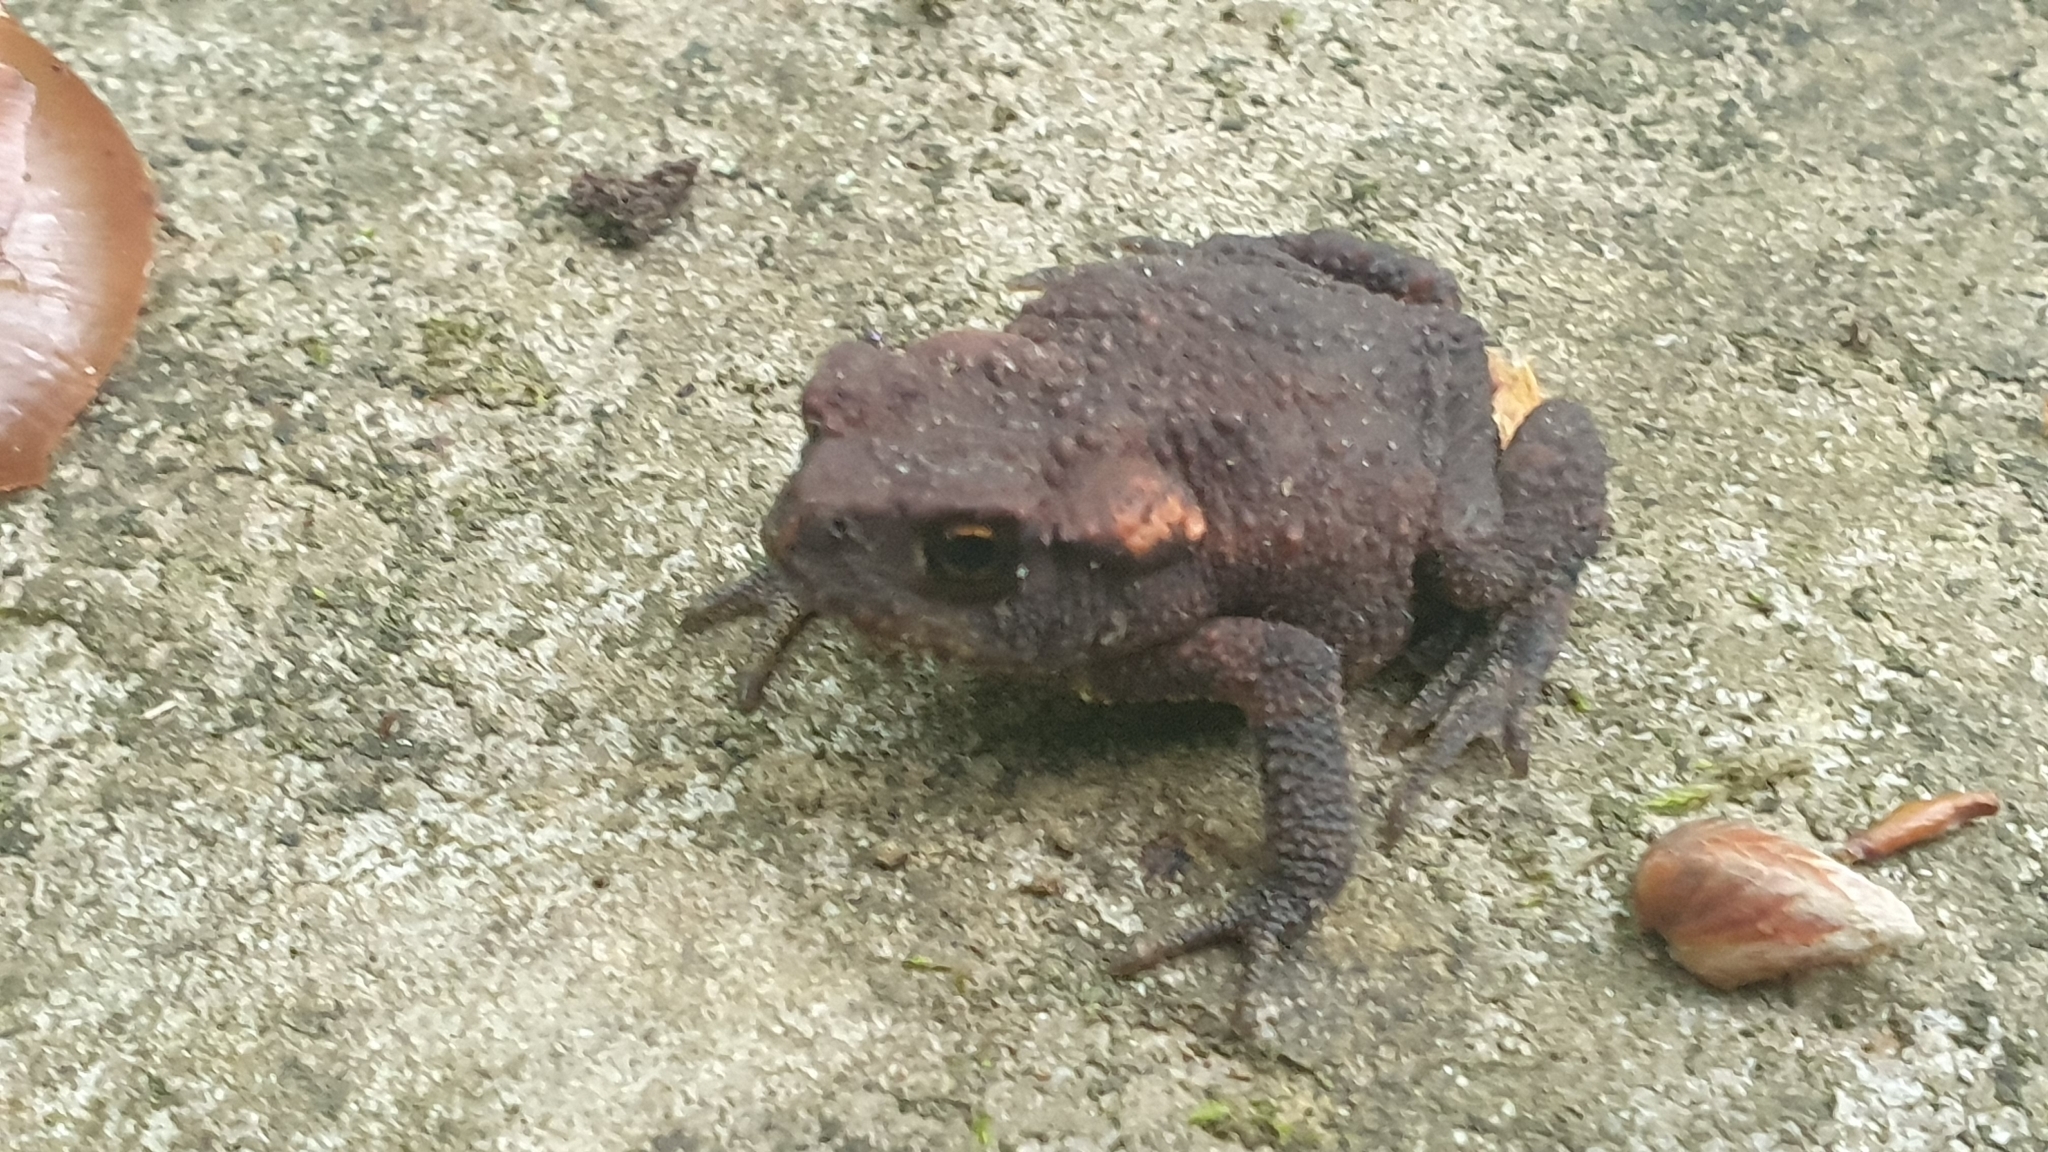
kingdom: Animalia
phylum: Chordata
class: Amphibia
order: Anura
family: Bufonidae
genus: Bufo
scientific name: Bufo spinosus
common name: Western common toad
